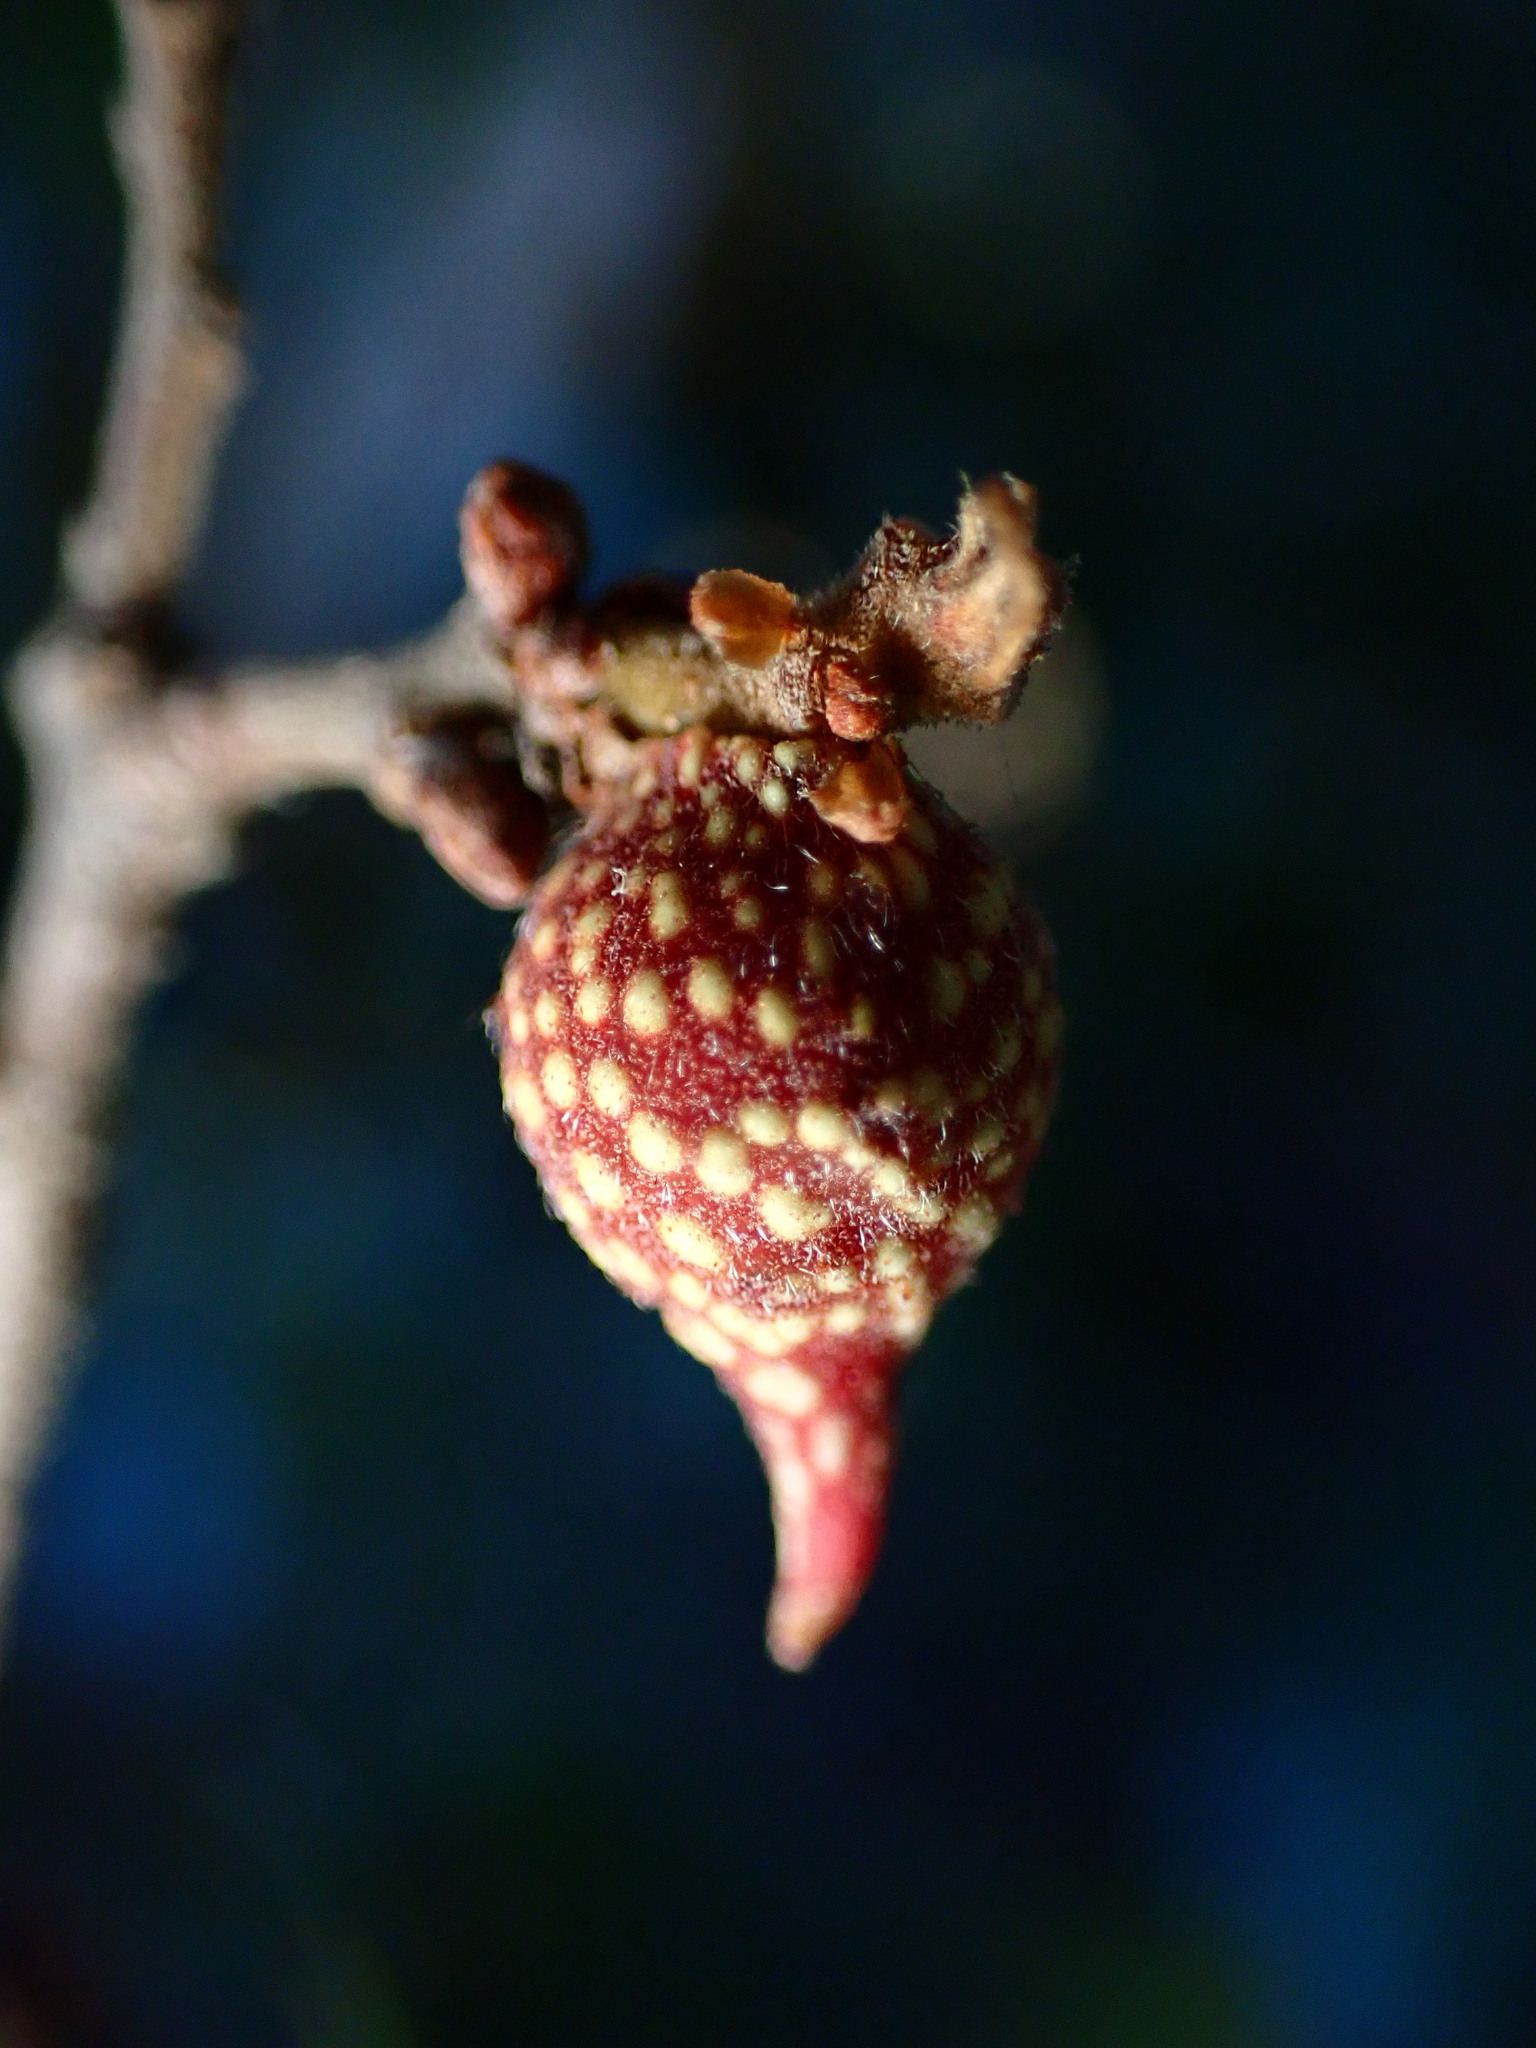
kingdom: Animalia
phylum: Arthropoda
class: Insecta
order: Hymenoptera
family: Cynipidae
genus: Burnettweldia
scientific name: Burnettweldia
